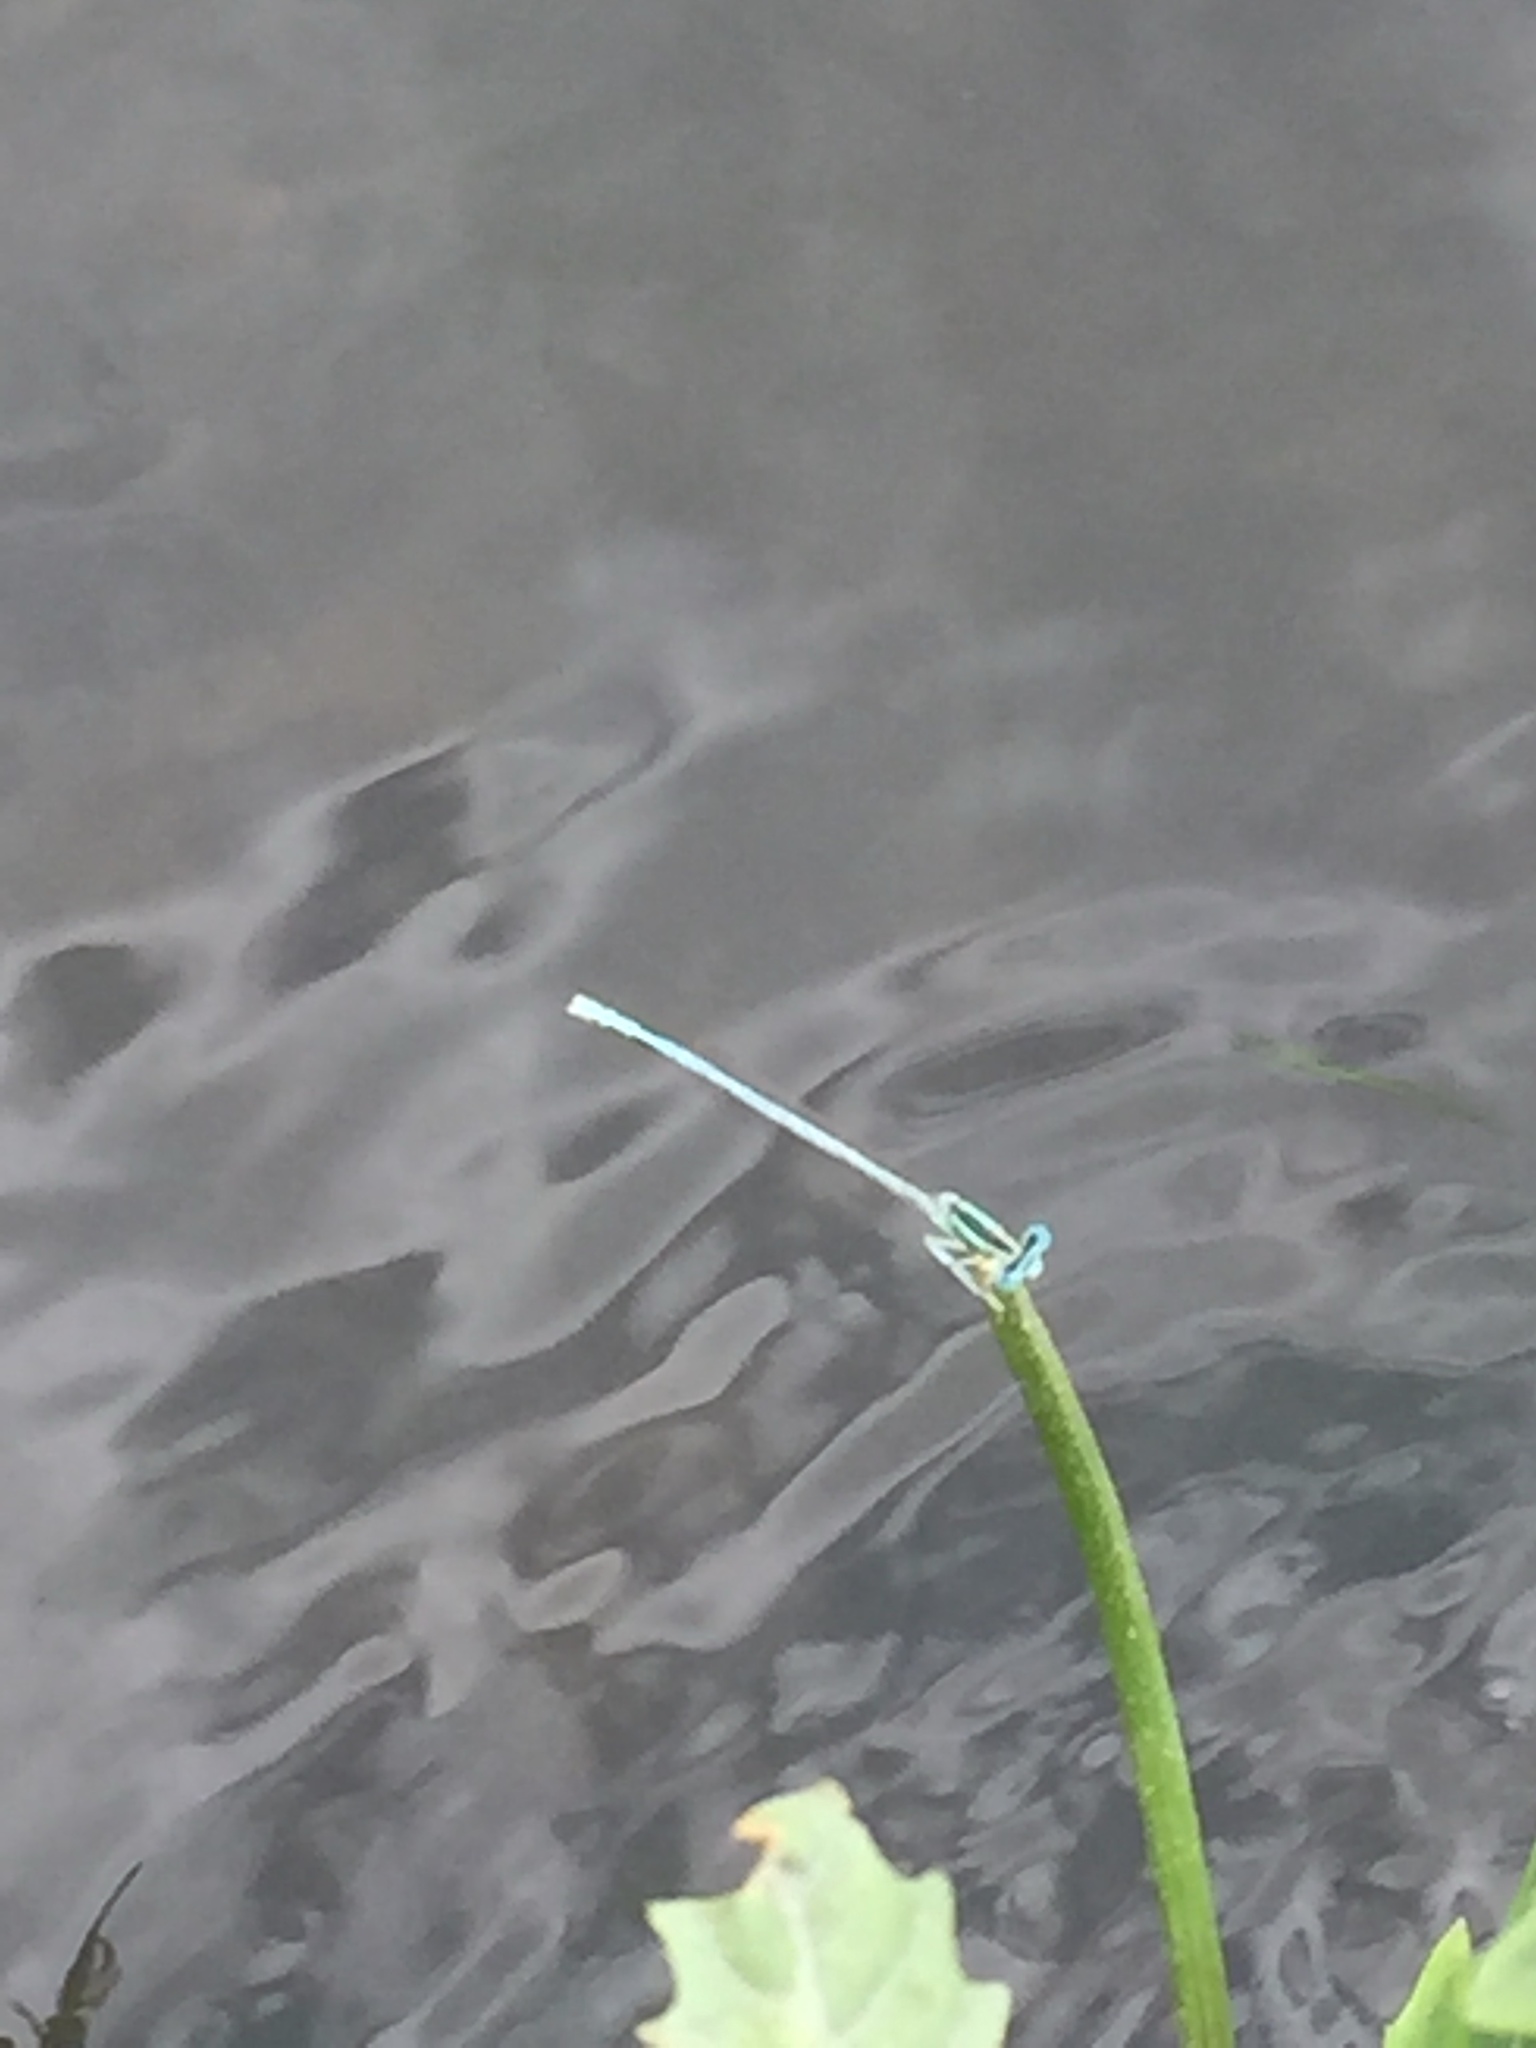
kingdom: Animalia
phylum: Arthropoda
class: Insecta
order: Odonata
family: Platycnemididae
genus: Platycnemis
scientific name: Platycnemis dealbata
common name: Ivory featherleg
